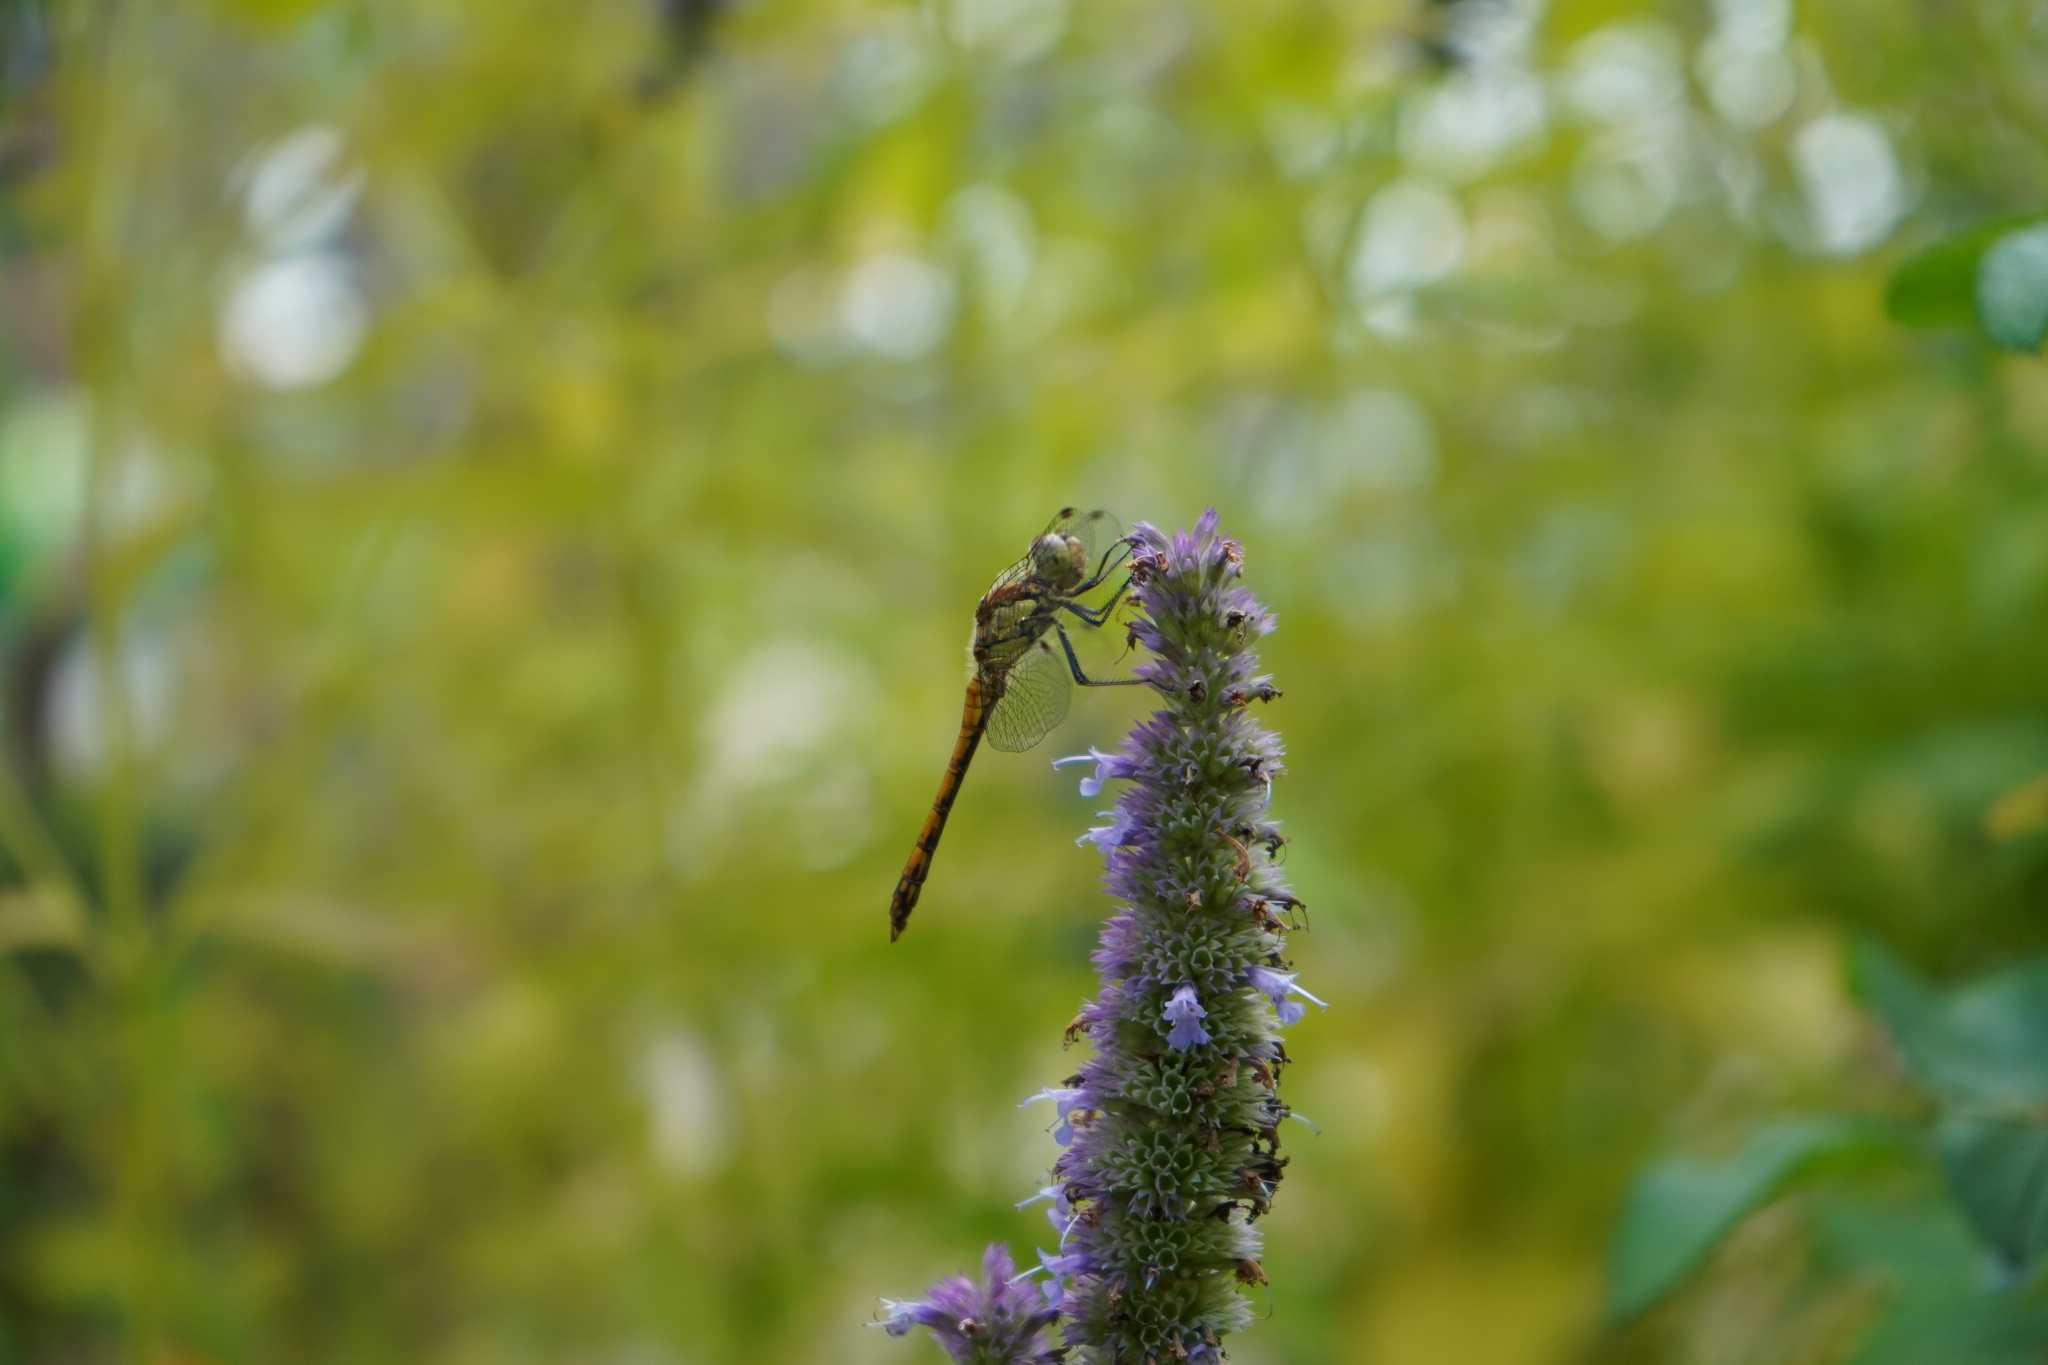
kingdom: Animalia
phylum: Arthropoda
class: Insecta
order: Odonata
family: Libellulidae
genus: Sympetrum
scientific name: Sympetrum striolatum
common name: Common darter
